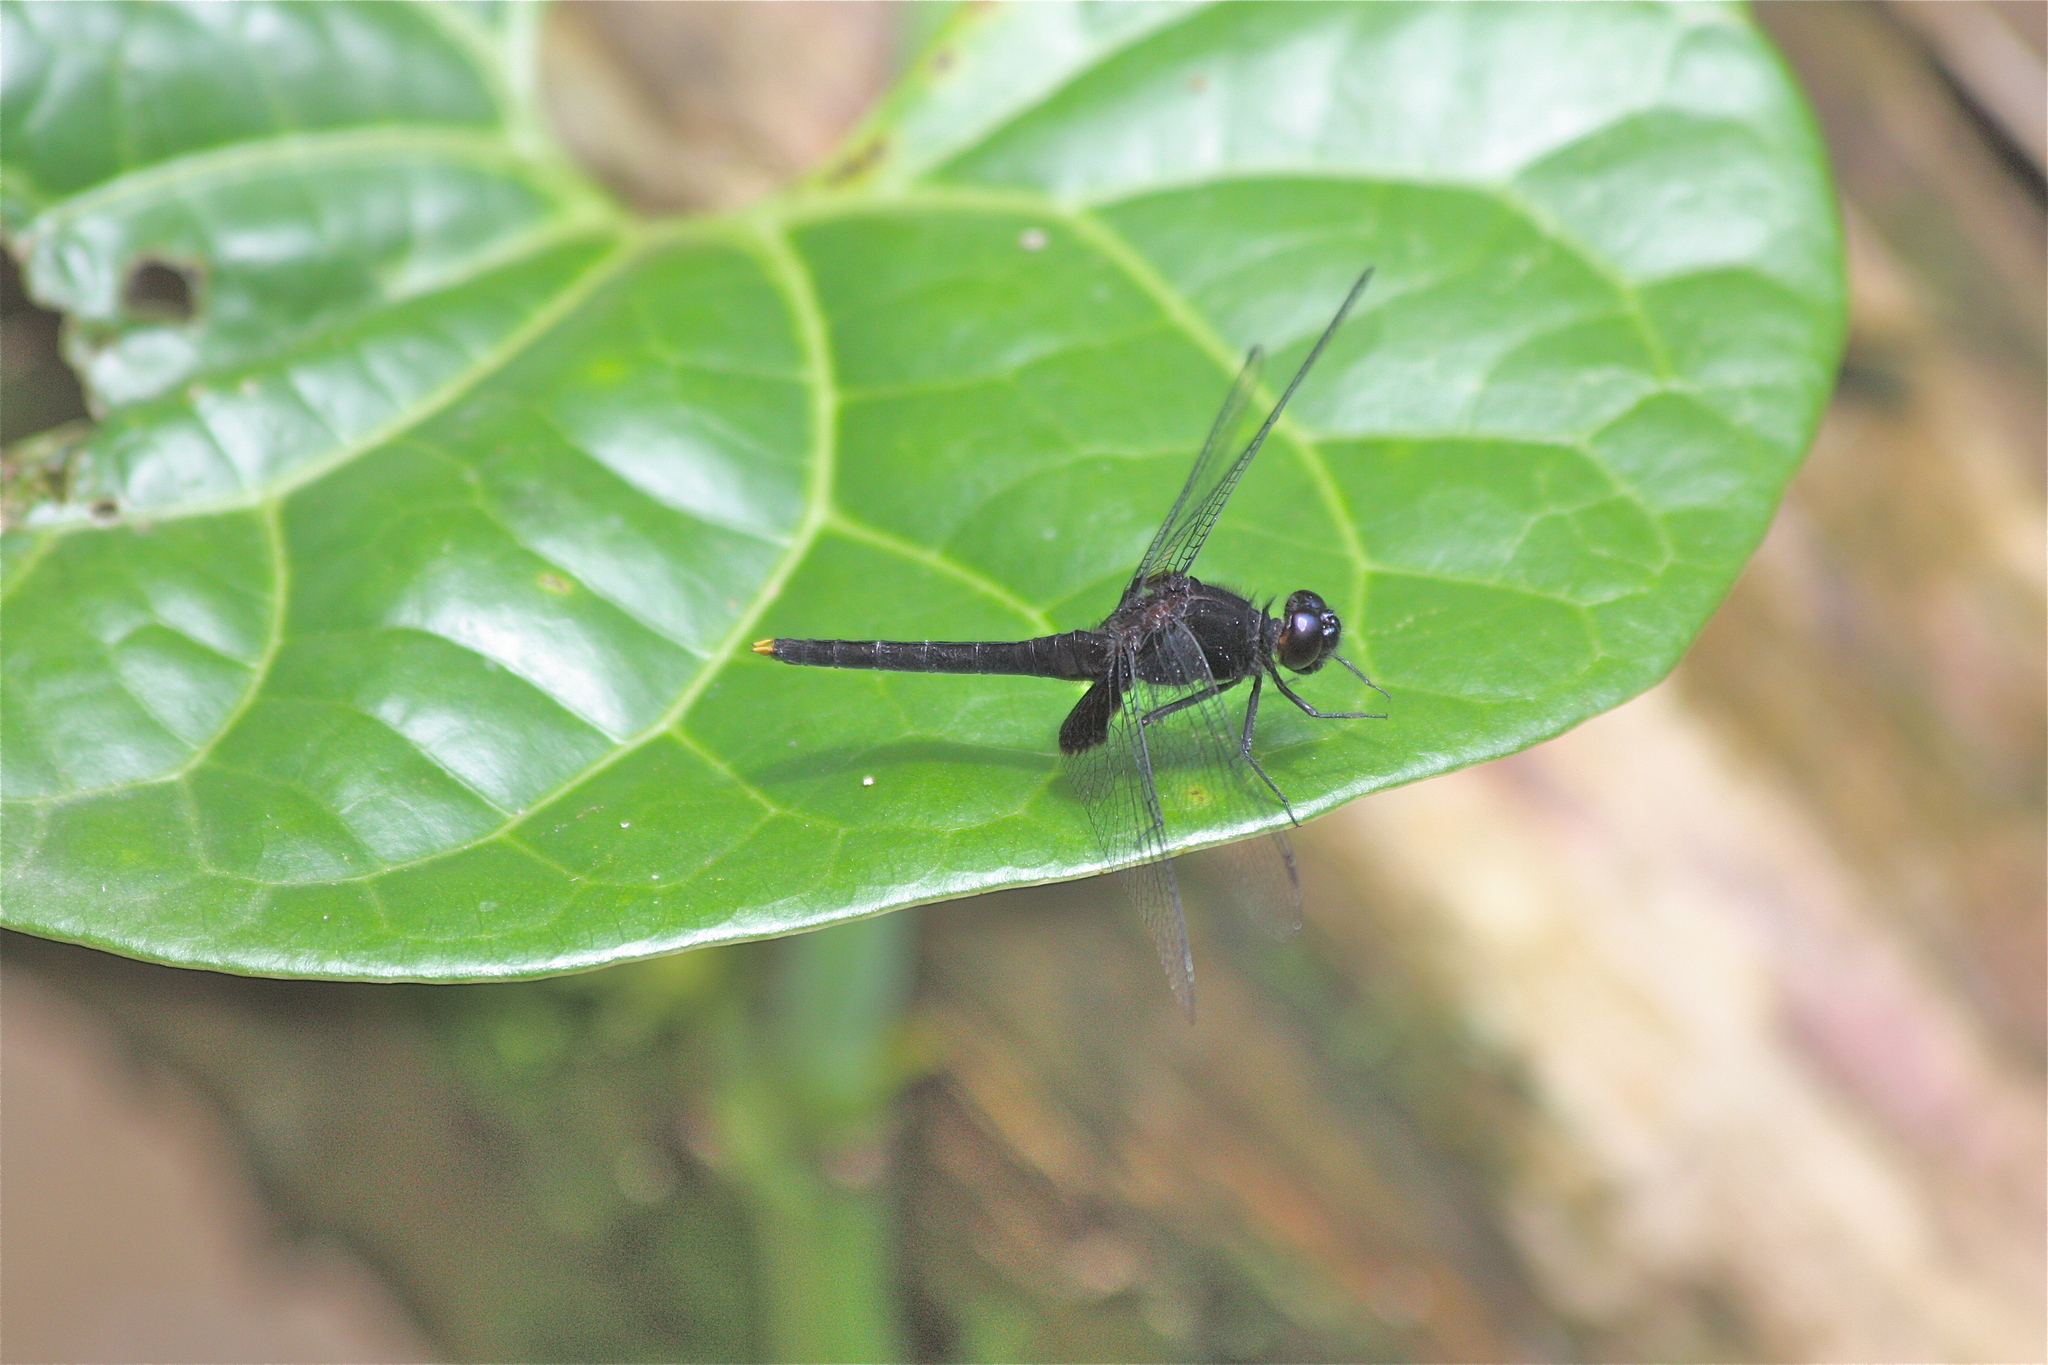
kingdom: Animalia
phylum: Arthropoda
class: Insecta
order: Odonata
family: Libellulidae
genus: Erythemis
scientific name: Erythemis attala
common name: Black pondhawk
